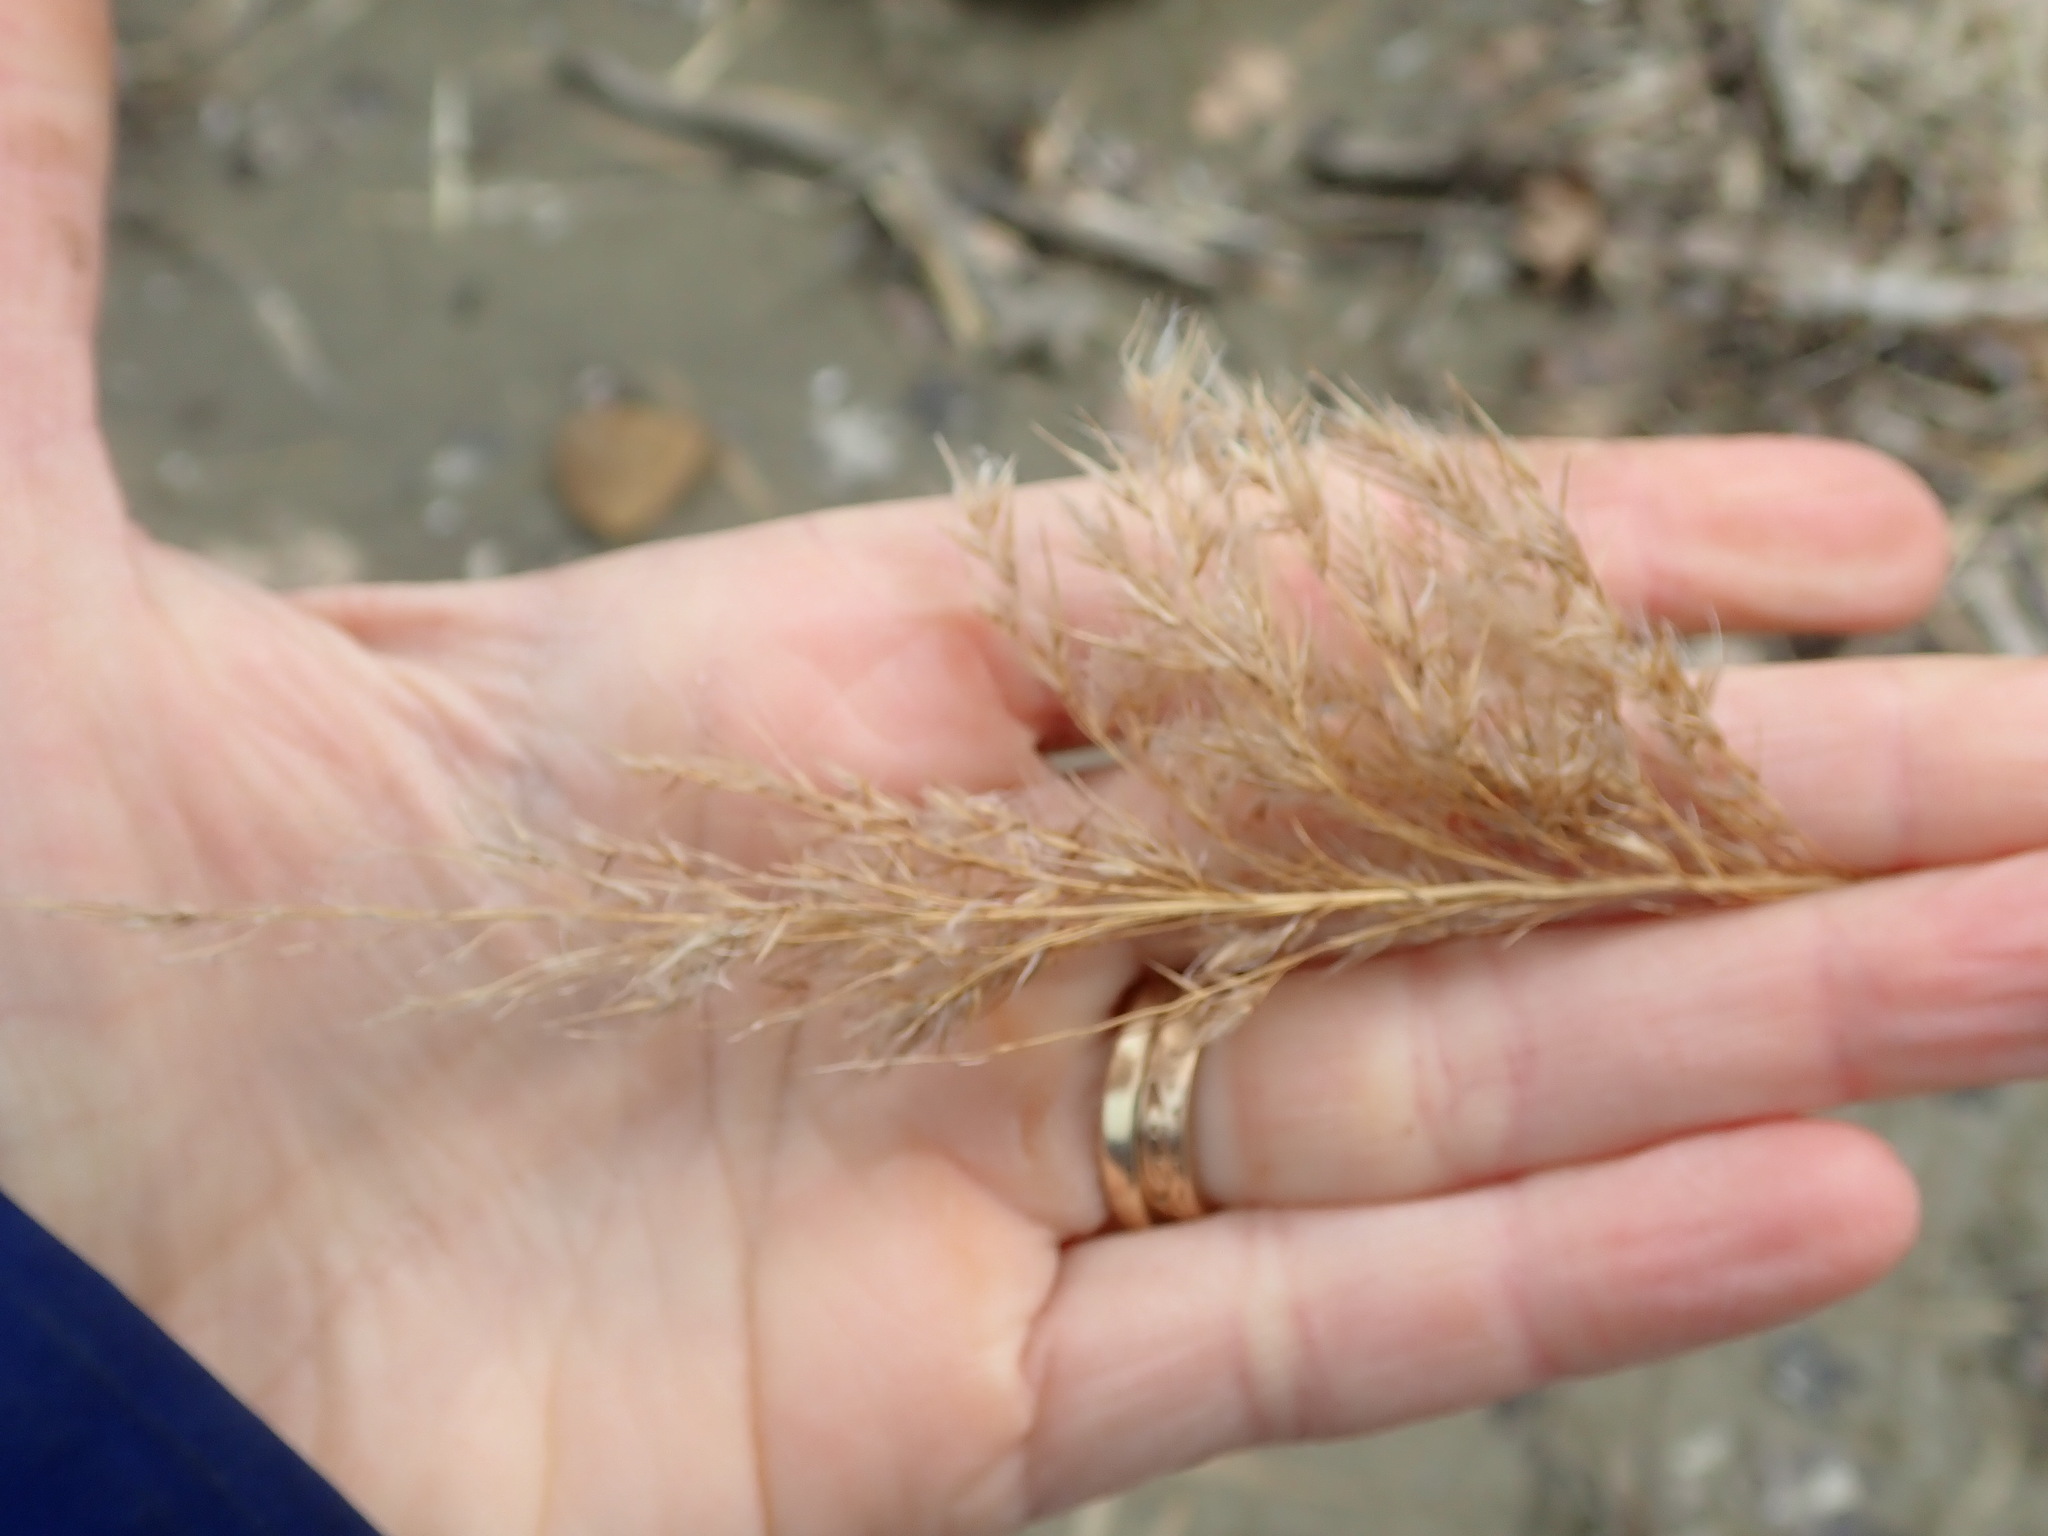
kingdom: Plantae
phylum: Tracheophyta
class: Liliopsida
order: Poales
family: Poaceae
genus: Phragmites
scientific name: Phragmites australis
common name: Common reed
